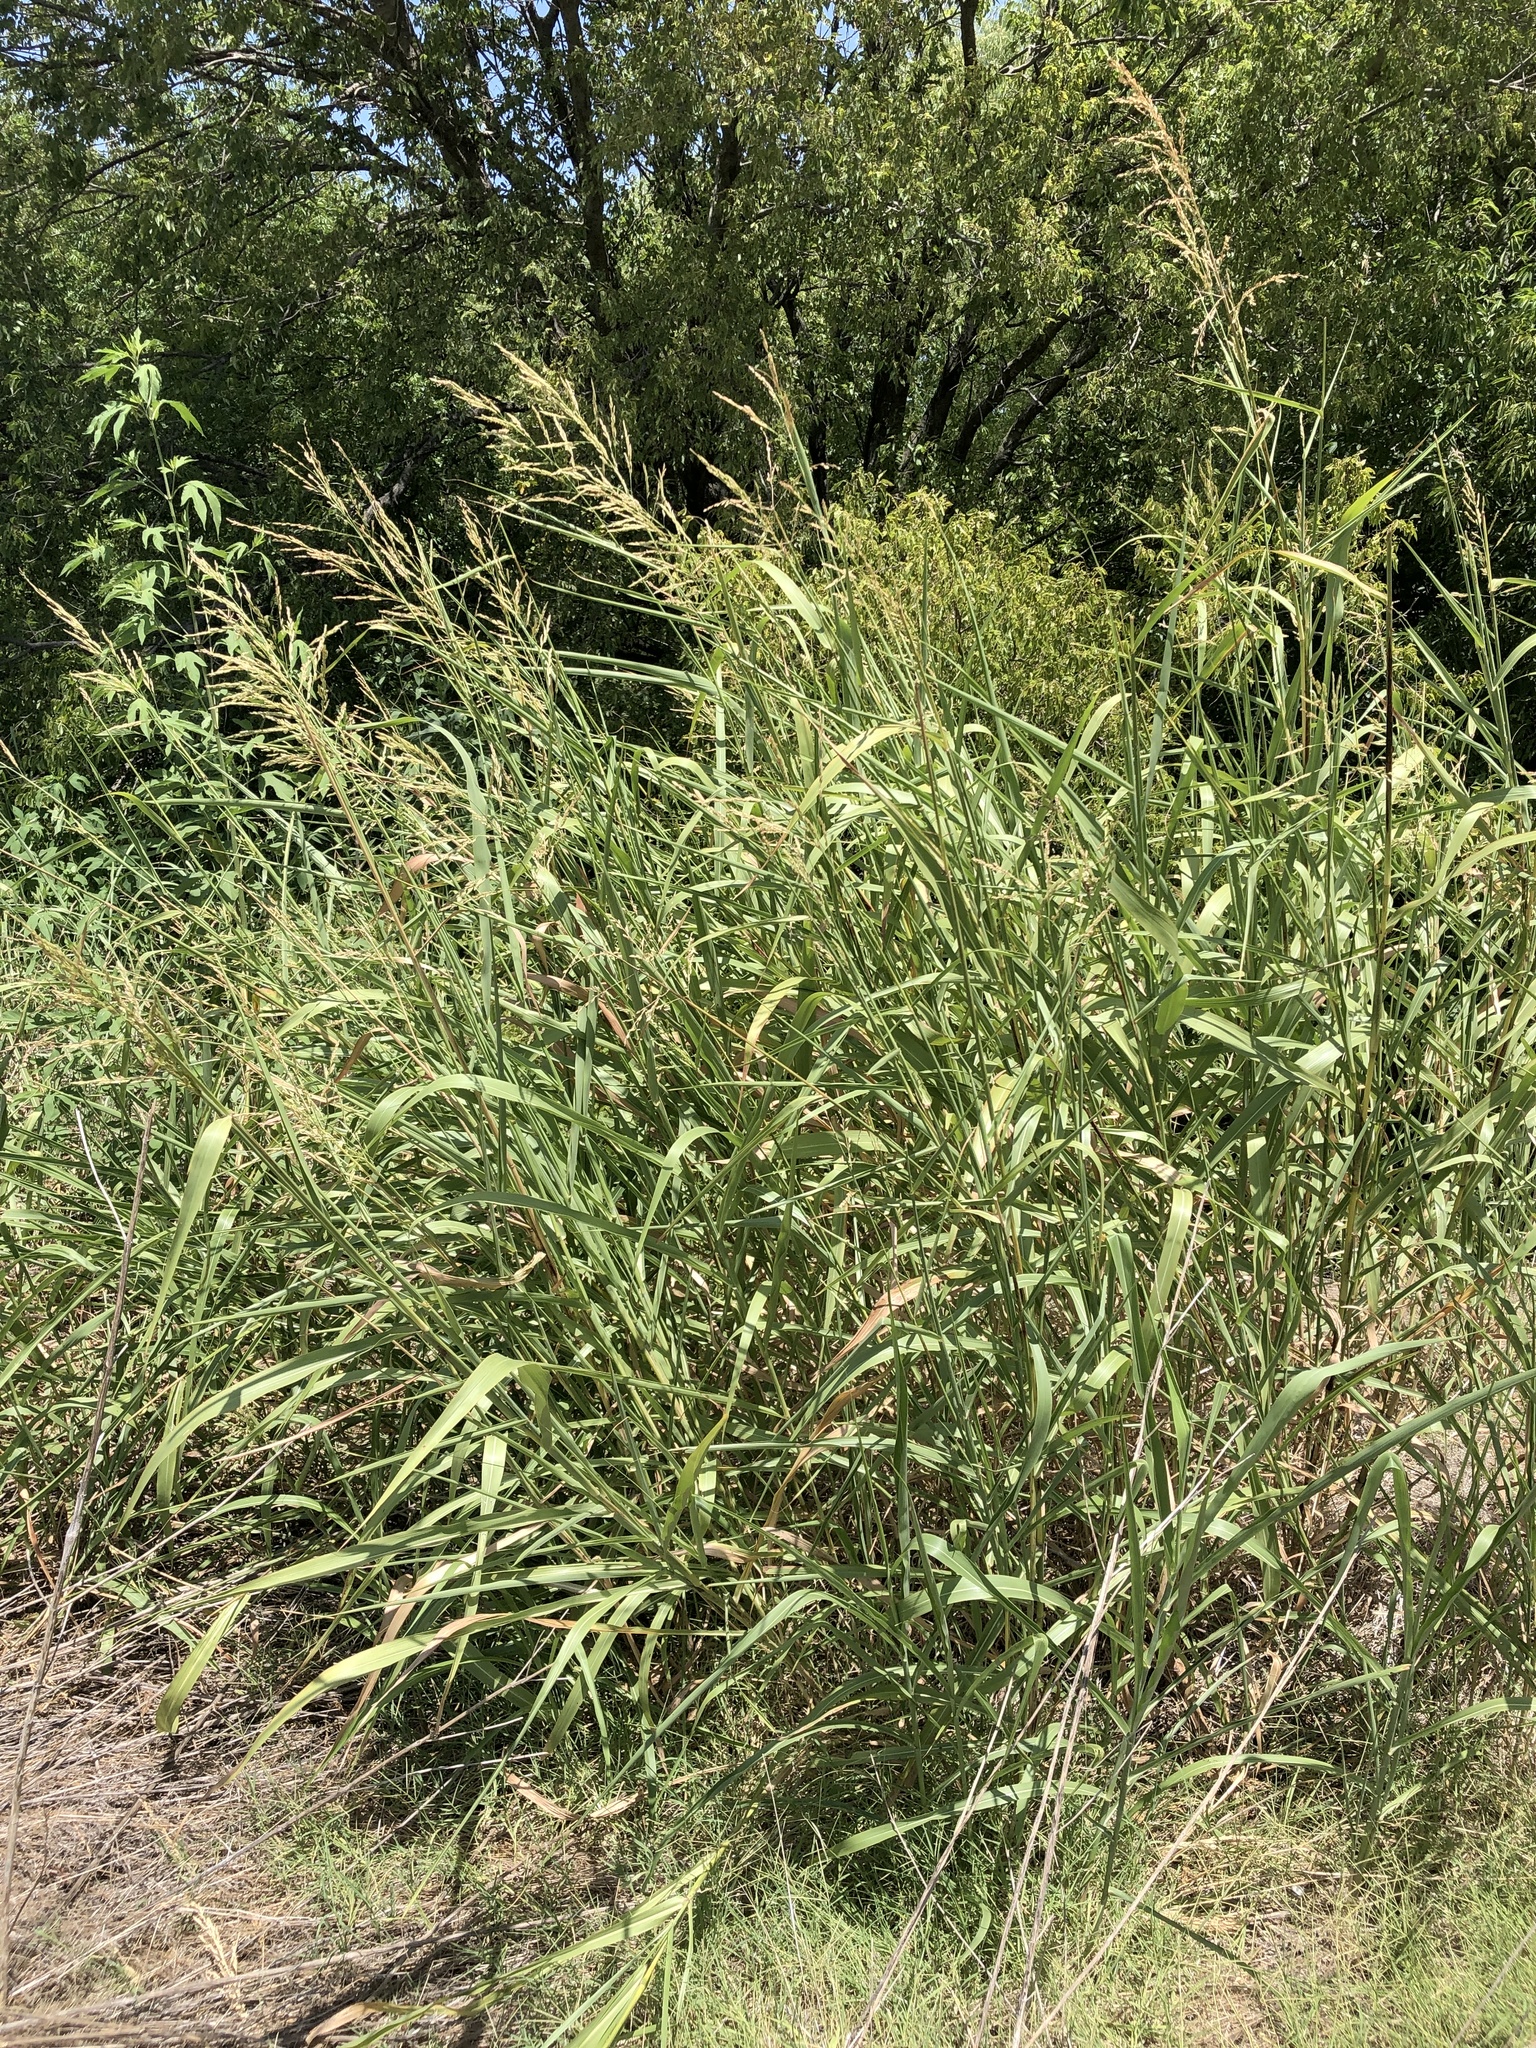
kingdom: Plantae
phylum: Tracheophyta
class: Liliopsida
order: Poales
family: Poaceae
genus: Sorghum
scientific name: Sorghum halepense
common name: Johnson-grass
